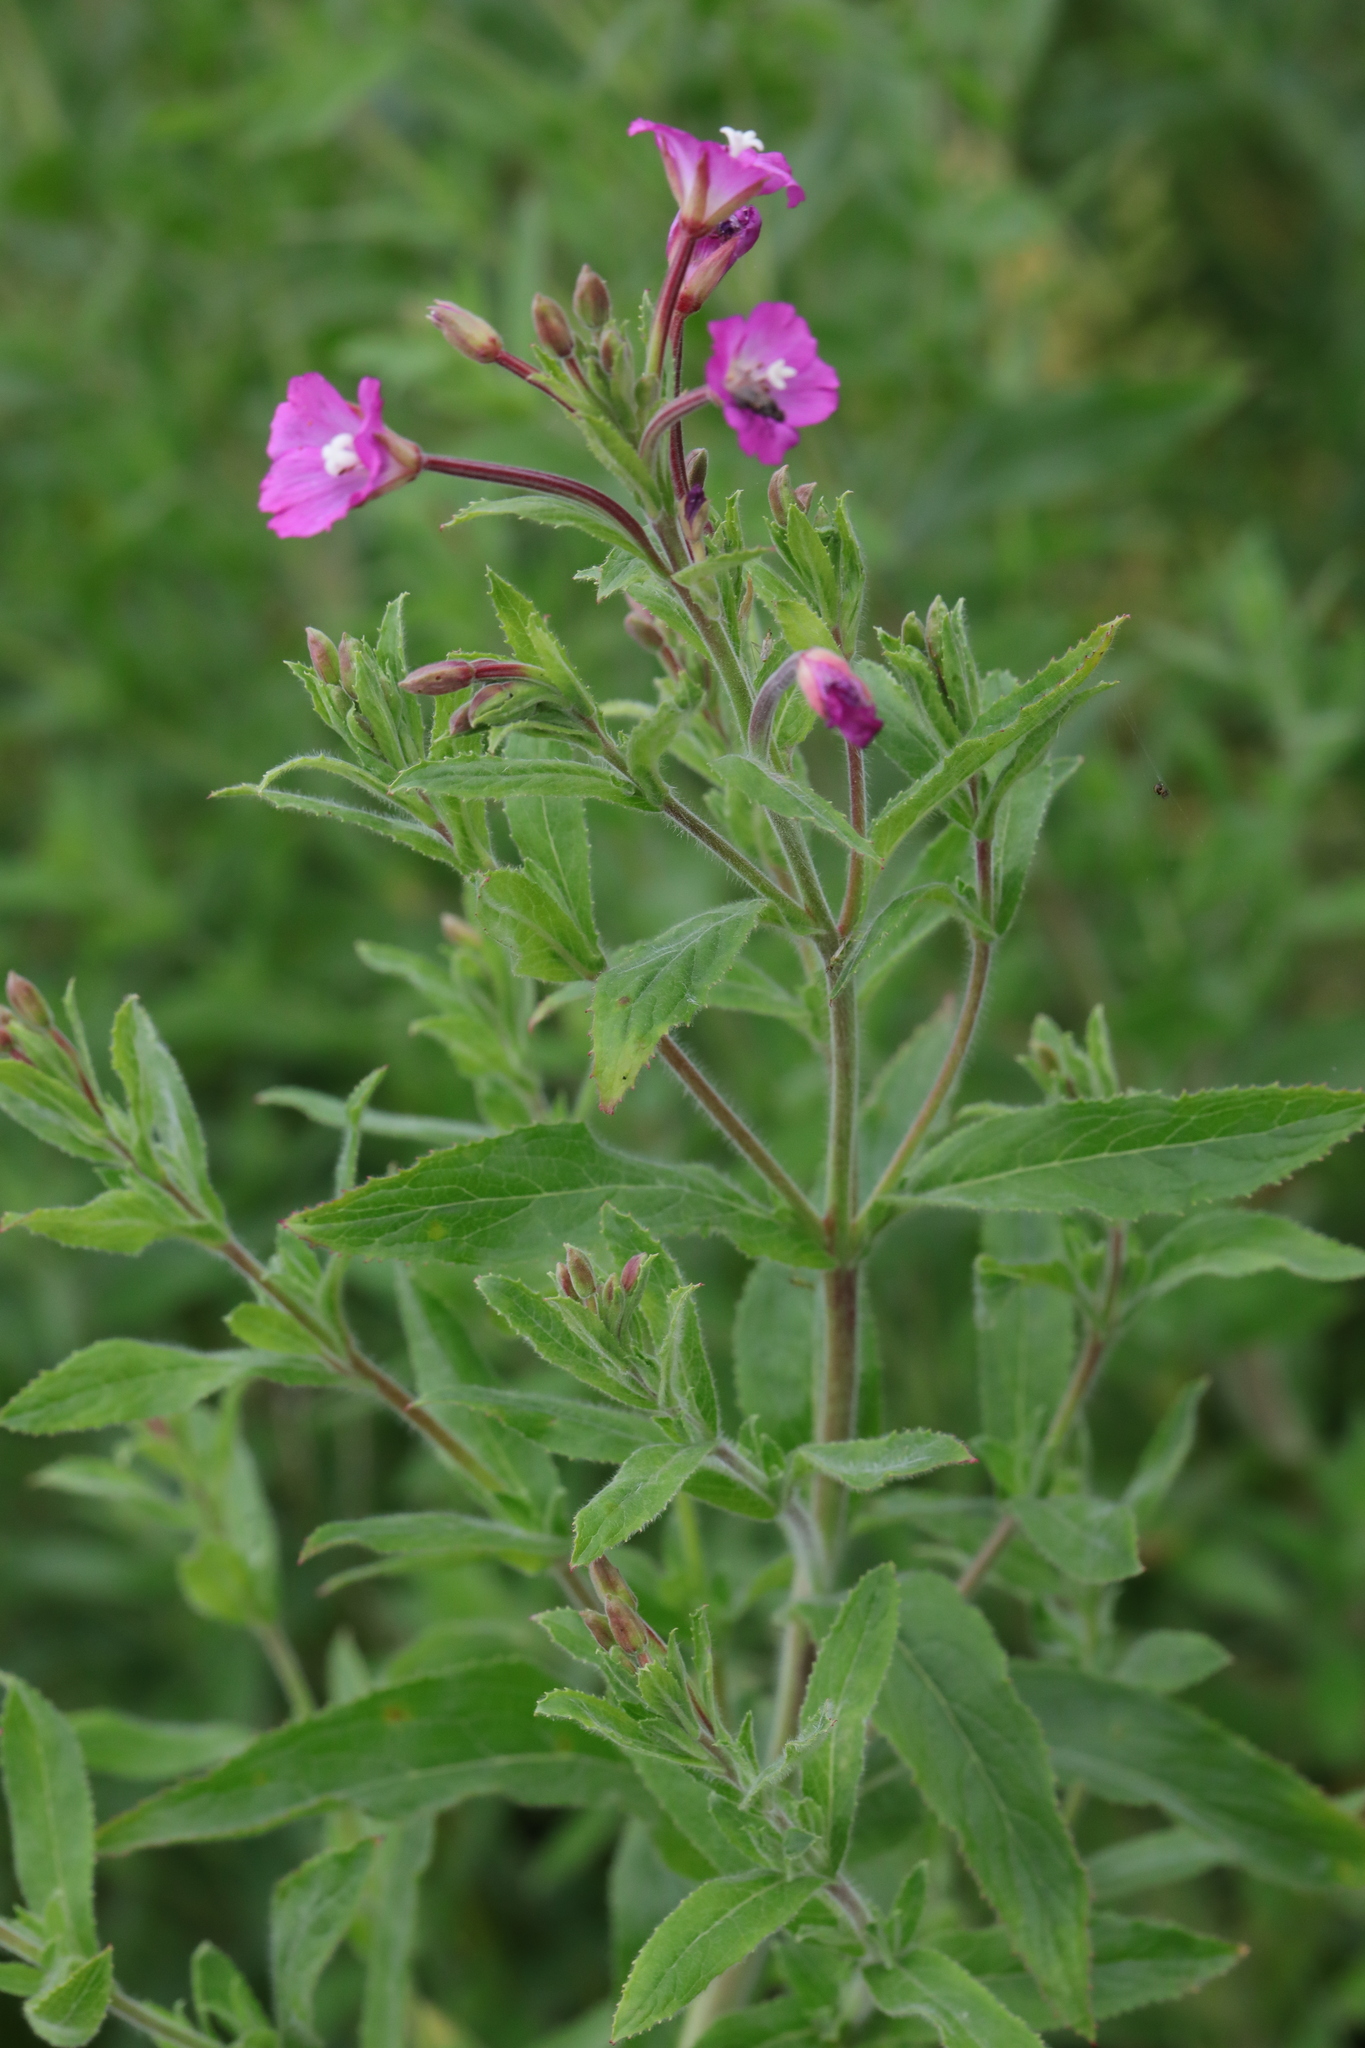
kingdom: Plantae
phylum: Tracheophyta
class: Magnoliopsida
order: Myrtales
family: Onagraceae
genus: Epilobium
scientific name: Epilobium hirsutum
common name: Great willowherb
